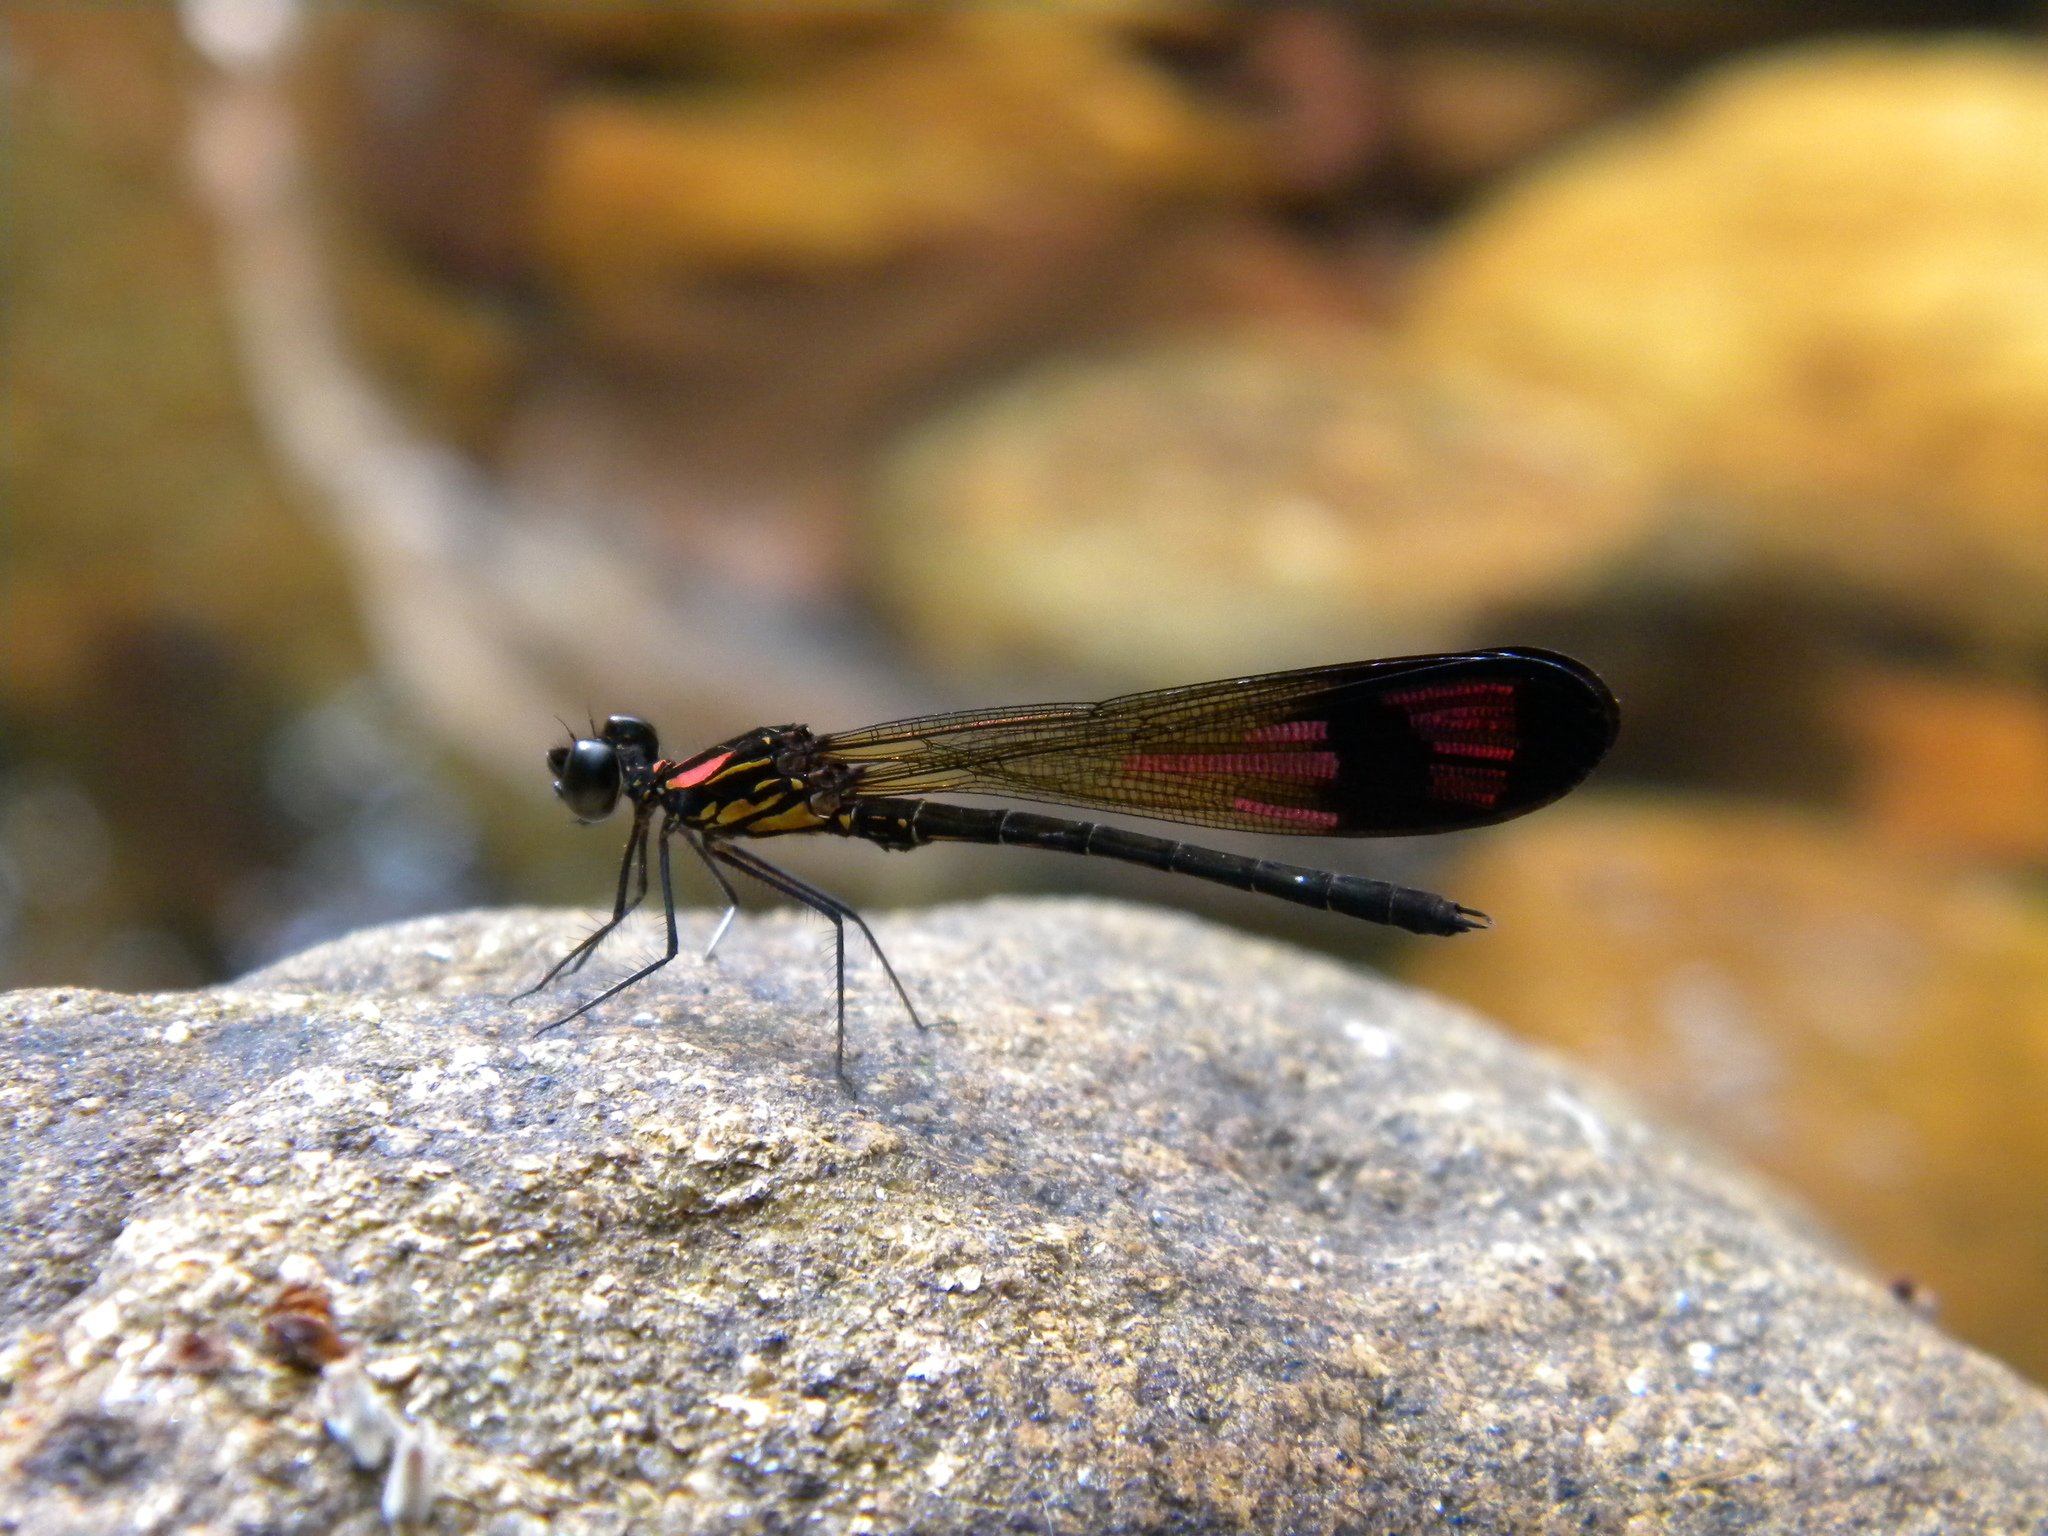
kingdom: Animalia
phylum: Arthropoda
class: Insecta
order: Odonata
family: Chlorocyphidae
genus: Heliocypha
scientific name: Heliocypha bisignata
